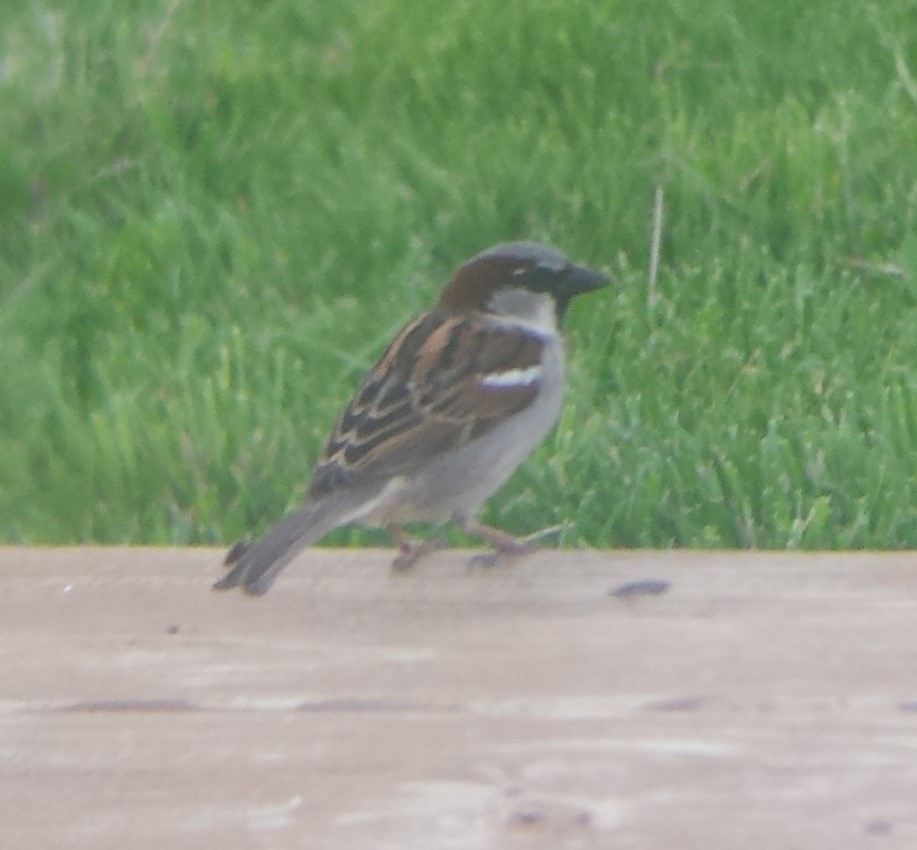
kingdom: Animalia
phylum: Chordata
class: Aves
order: Passeriformes
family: Passeridae
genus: Passer
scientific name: Passer domesticus
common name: House sparrow
